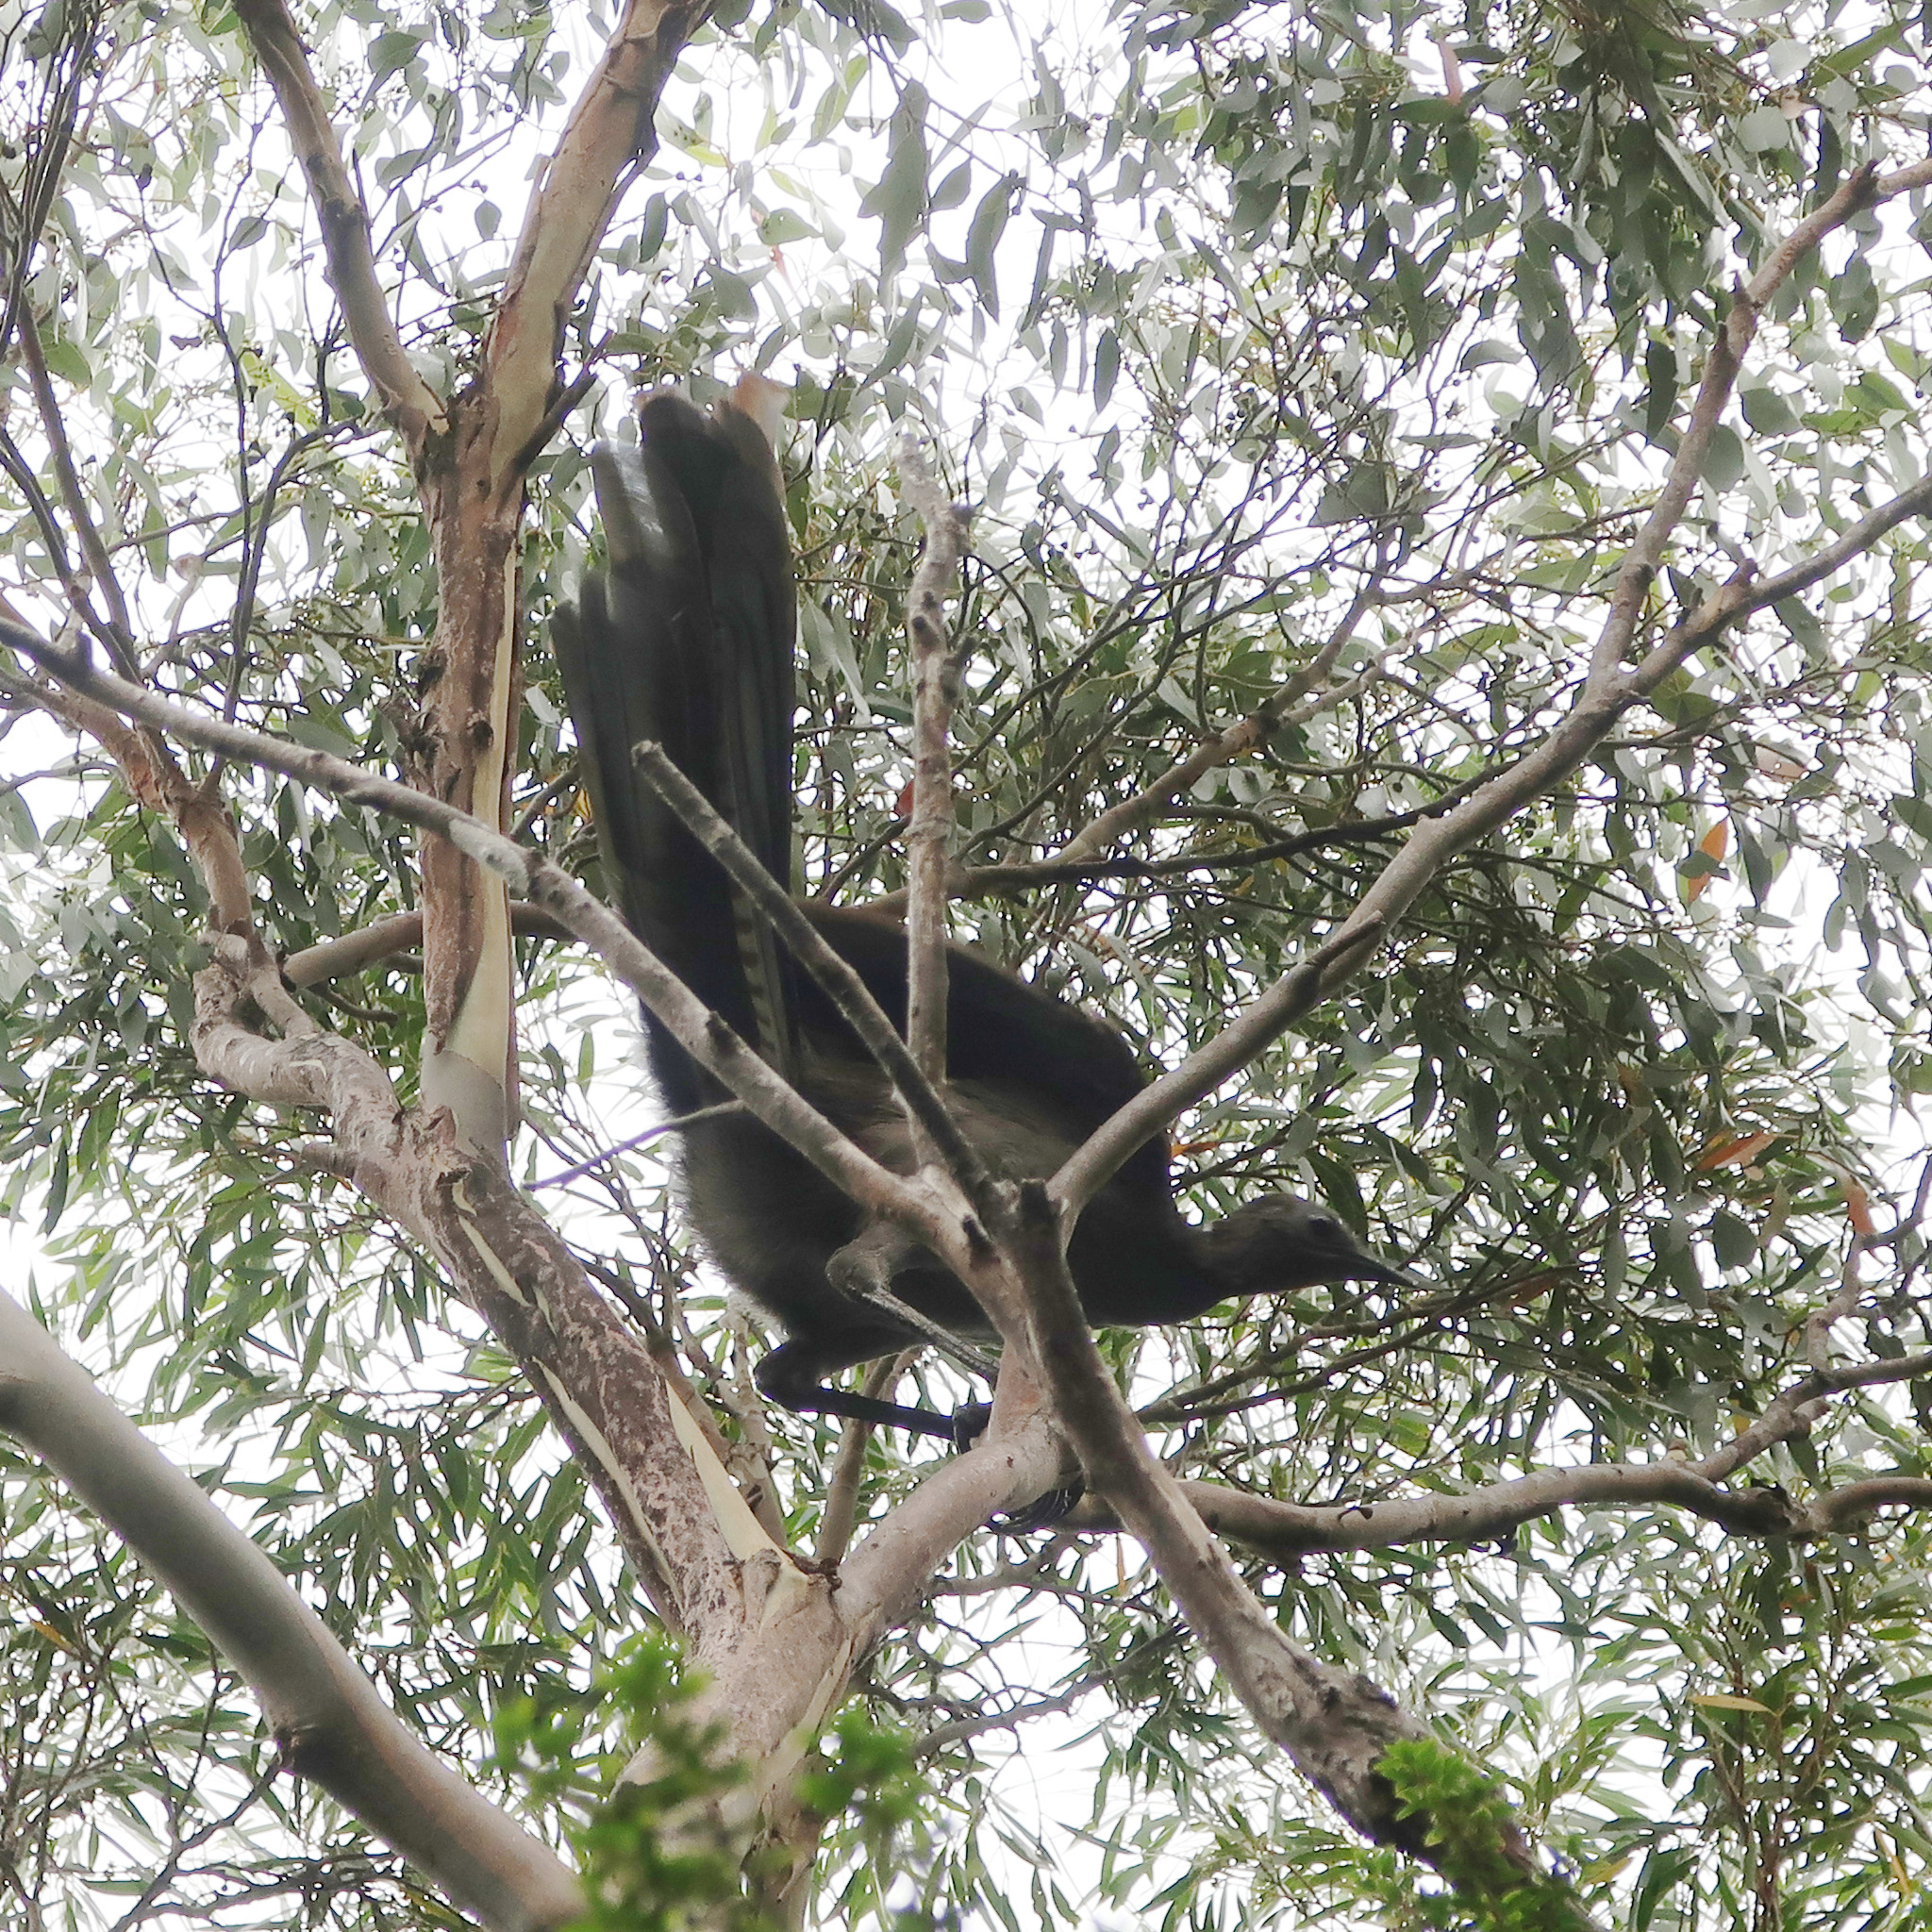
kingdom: Animalia
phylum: Chordata
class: Aves
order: Passeriformes
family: Menuridae
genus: Menura
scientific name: Menura novaehollandiae
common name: Superb lyrebird
